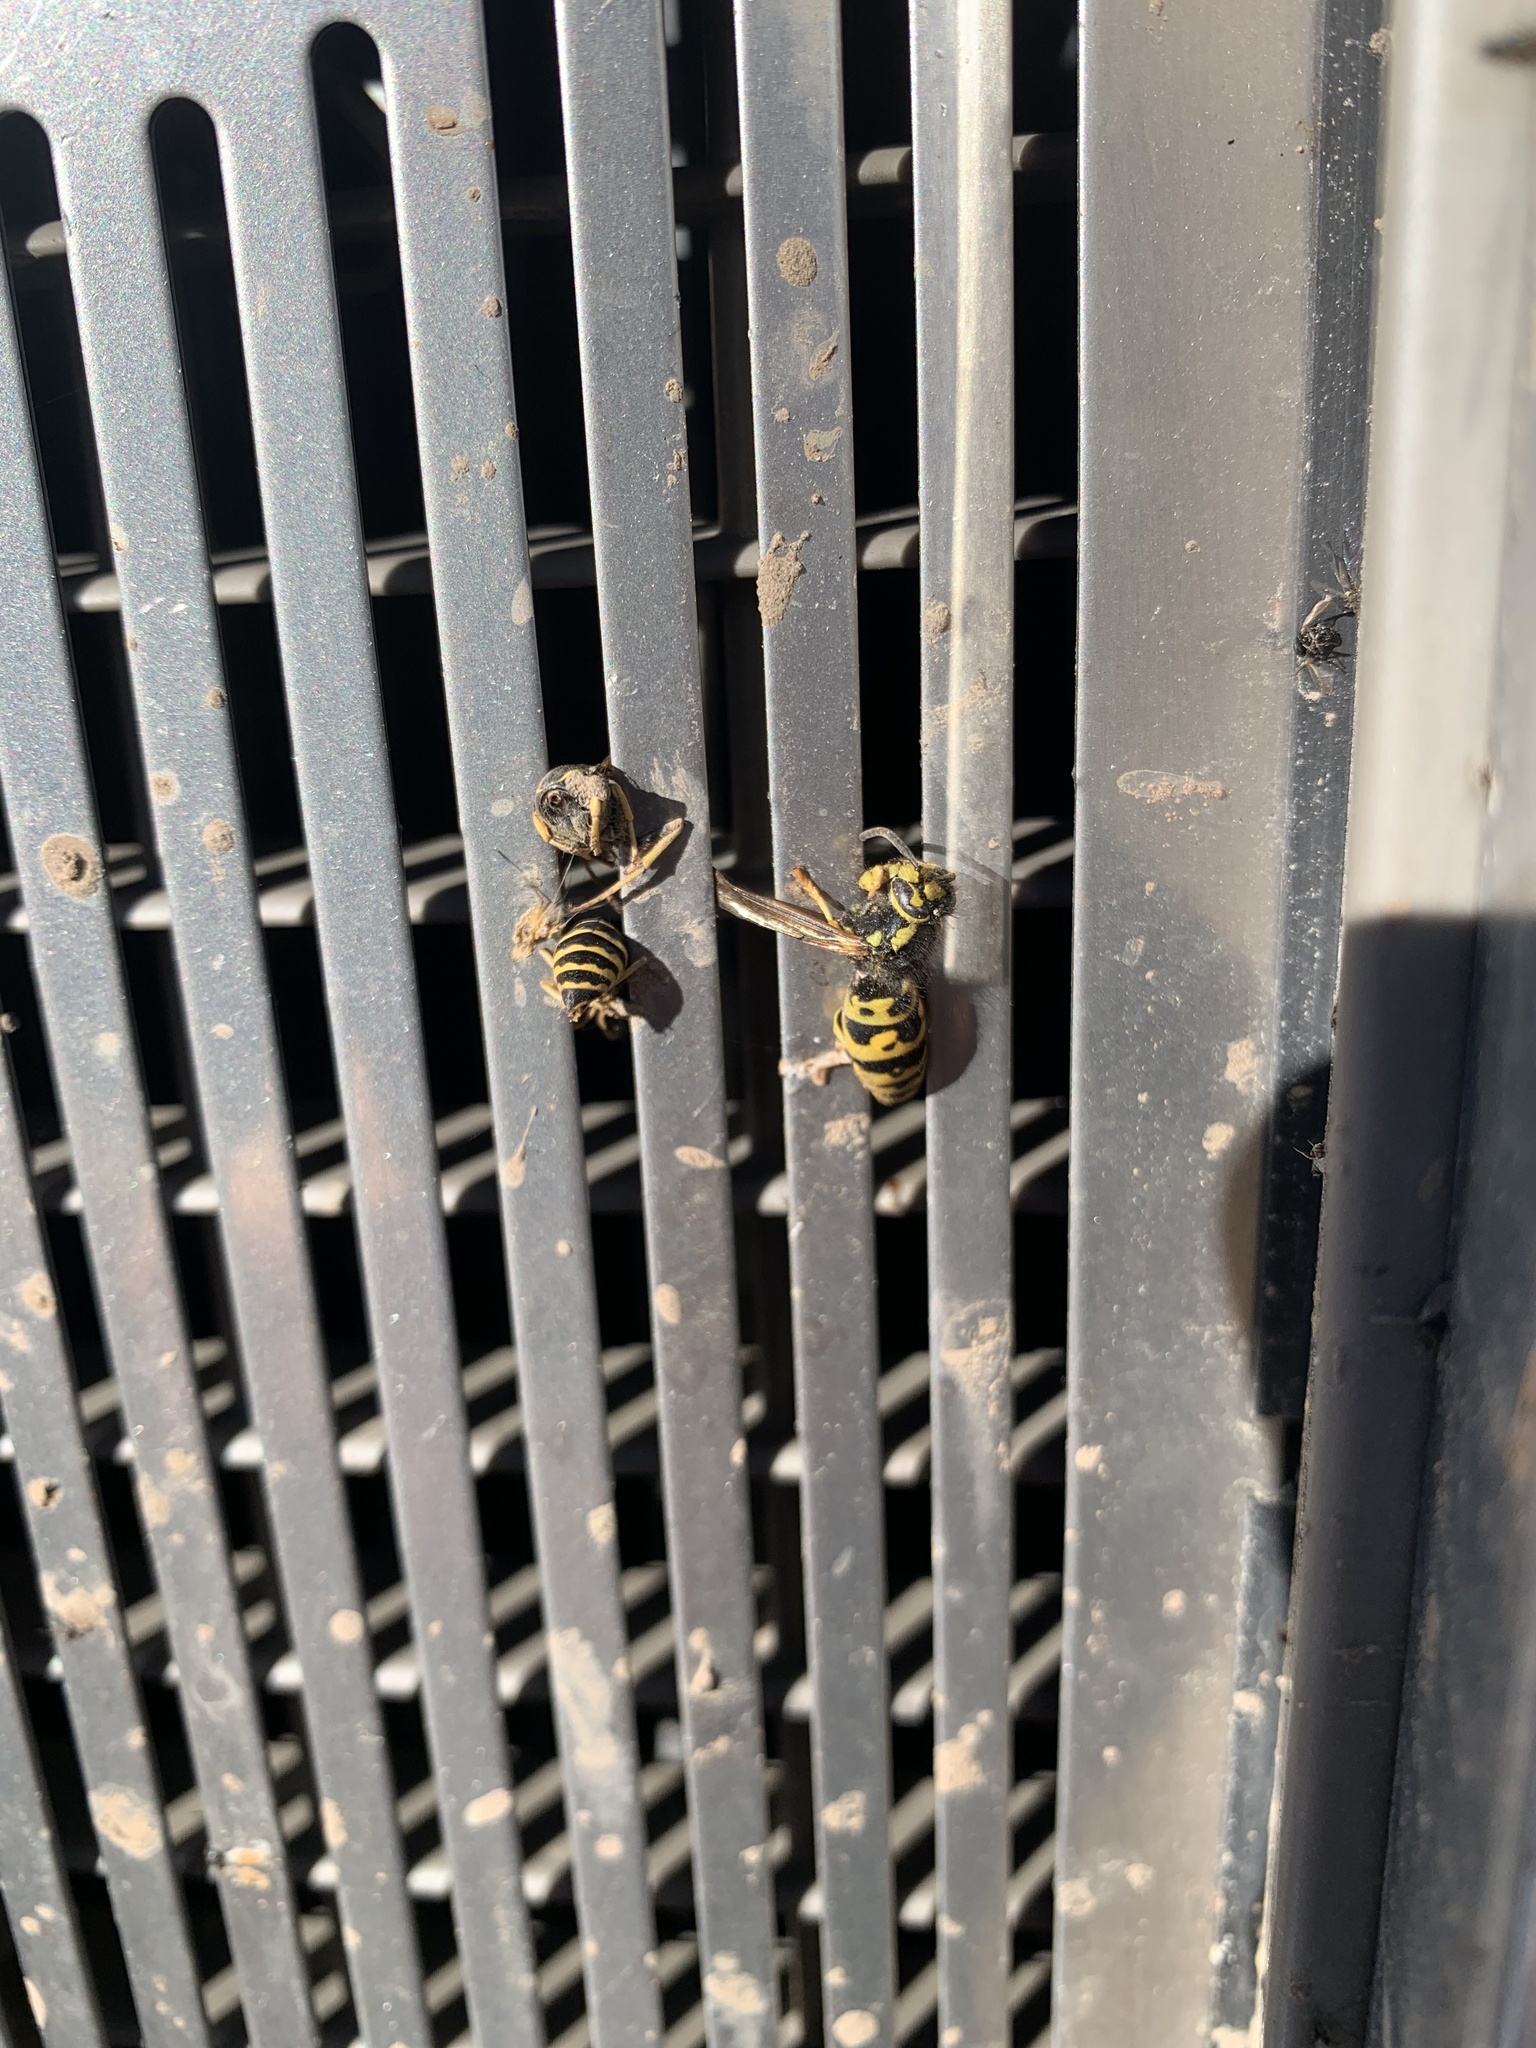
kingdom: Animalia
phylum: Arthropoda
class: Insecta
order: Hymenoptera
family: Vespidae
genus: Vespula
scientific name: Vespula atropilosa
